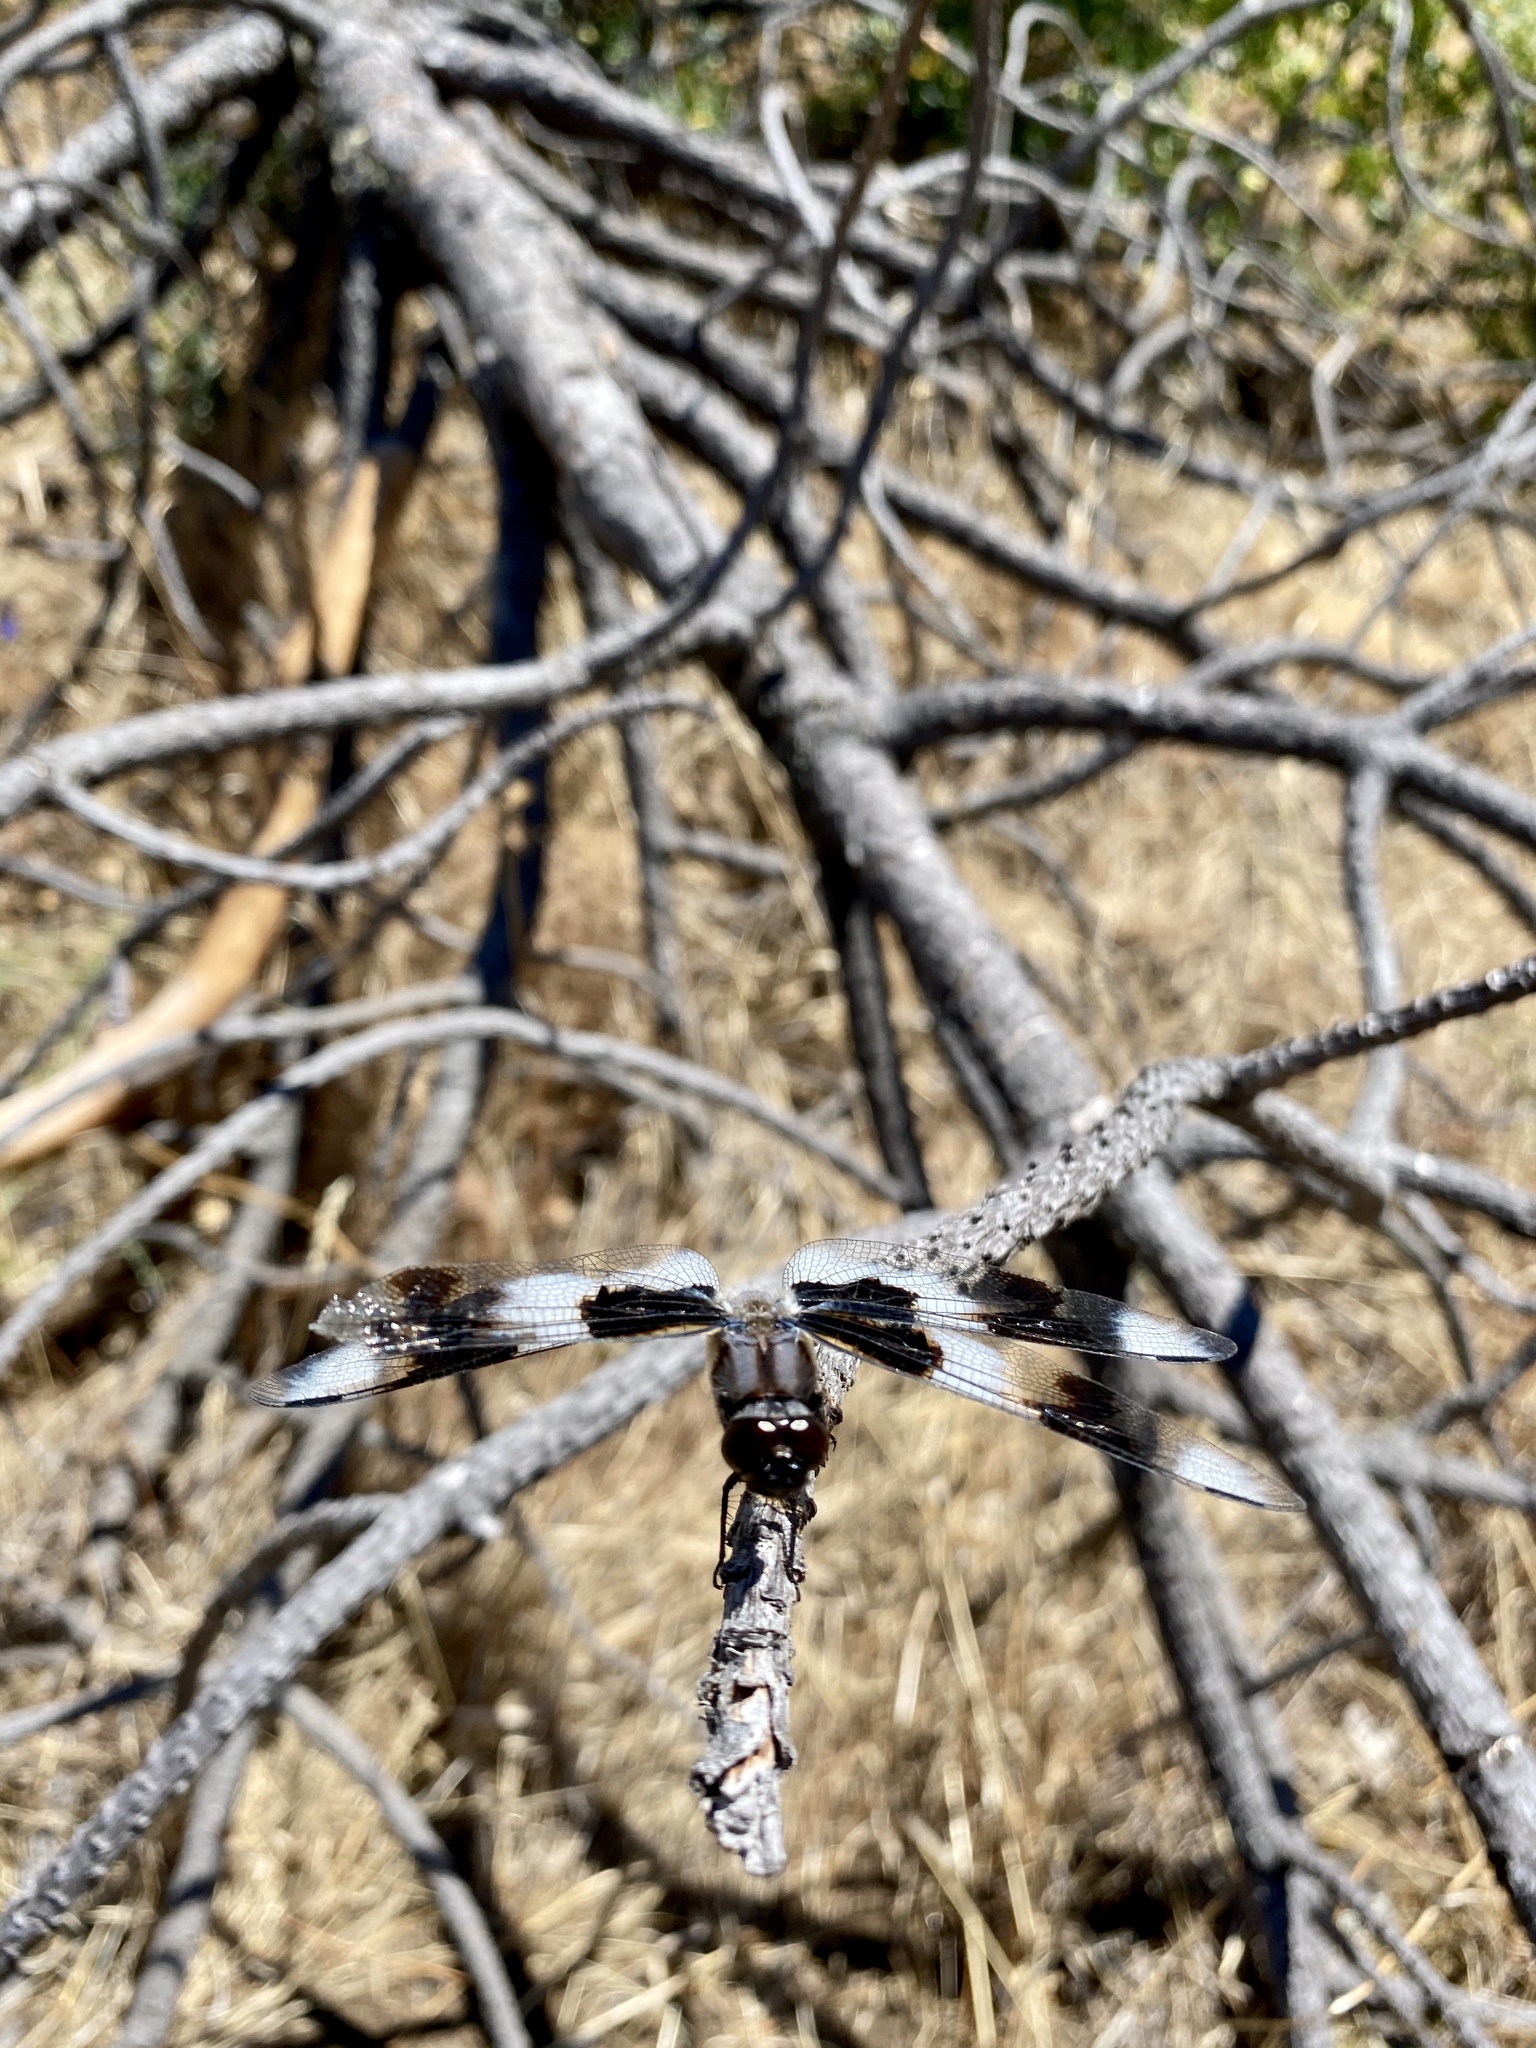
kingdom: Animalia
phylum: Arthropoda
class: Insecta
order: Odonata
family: Libellulidae
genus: Libellula
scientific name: Libellula forensis
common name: Eight-spotted skimmer
